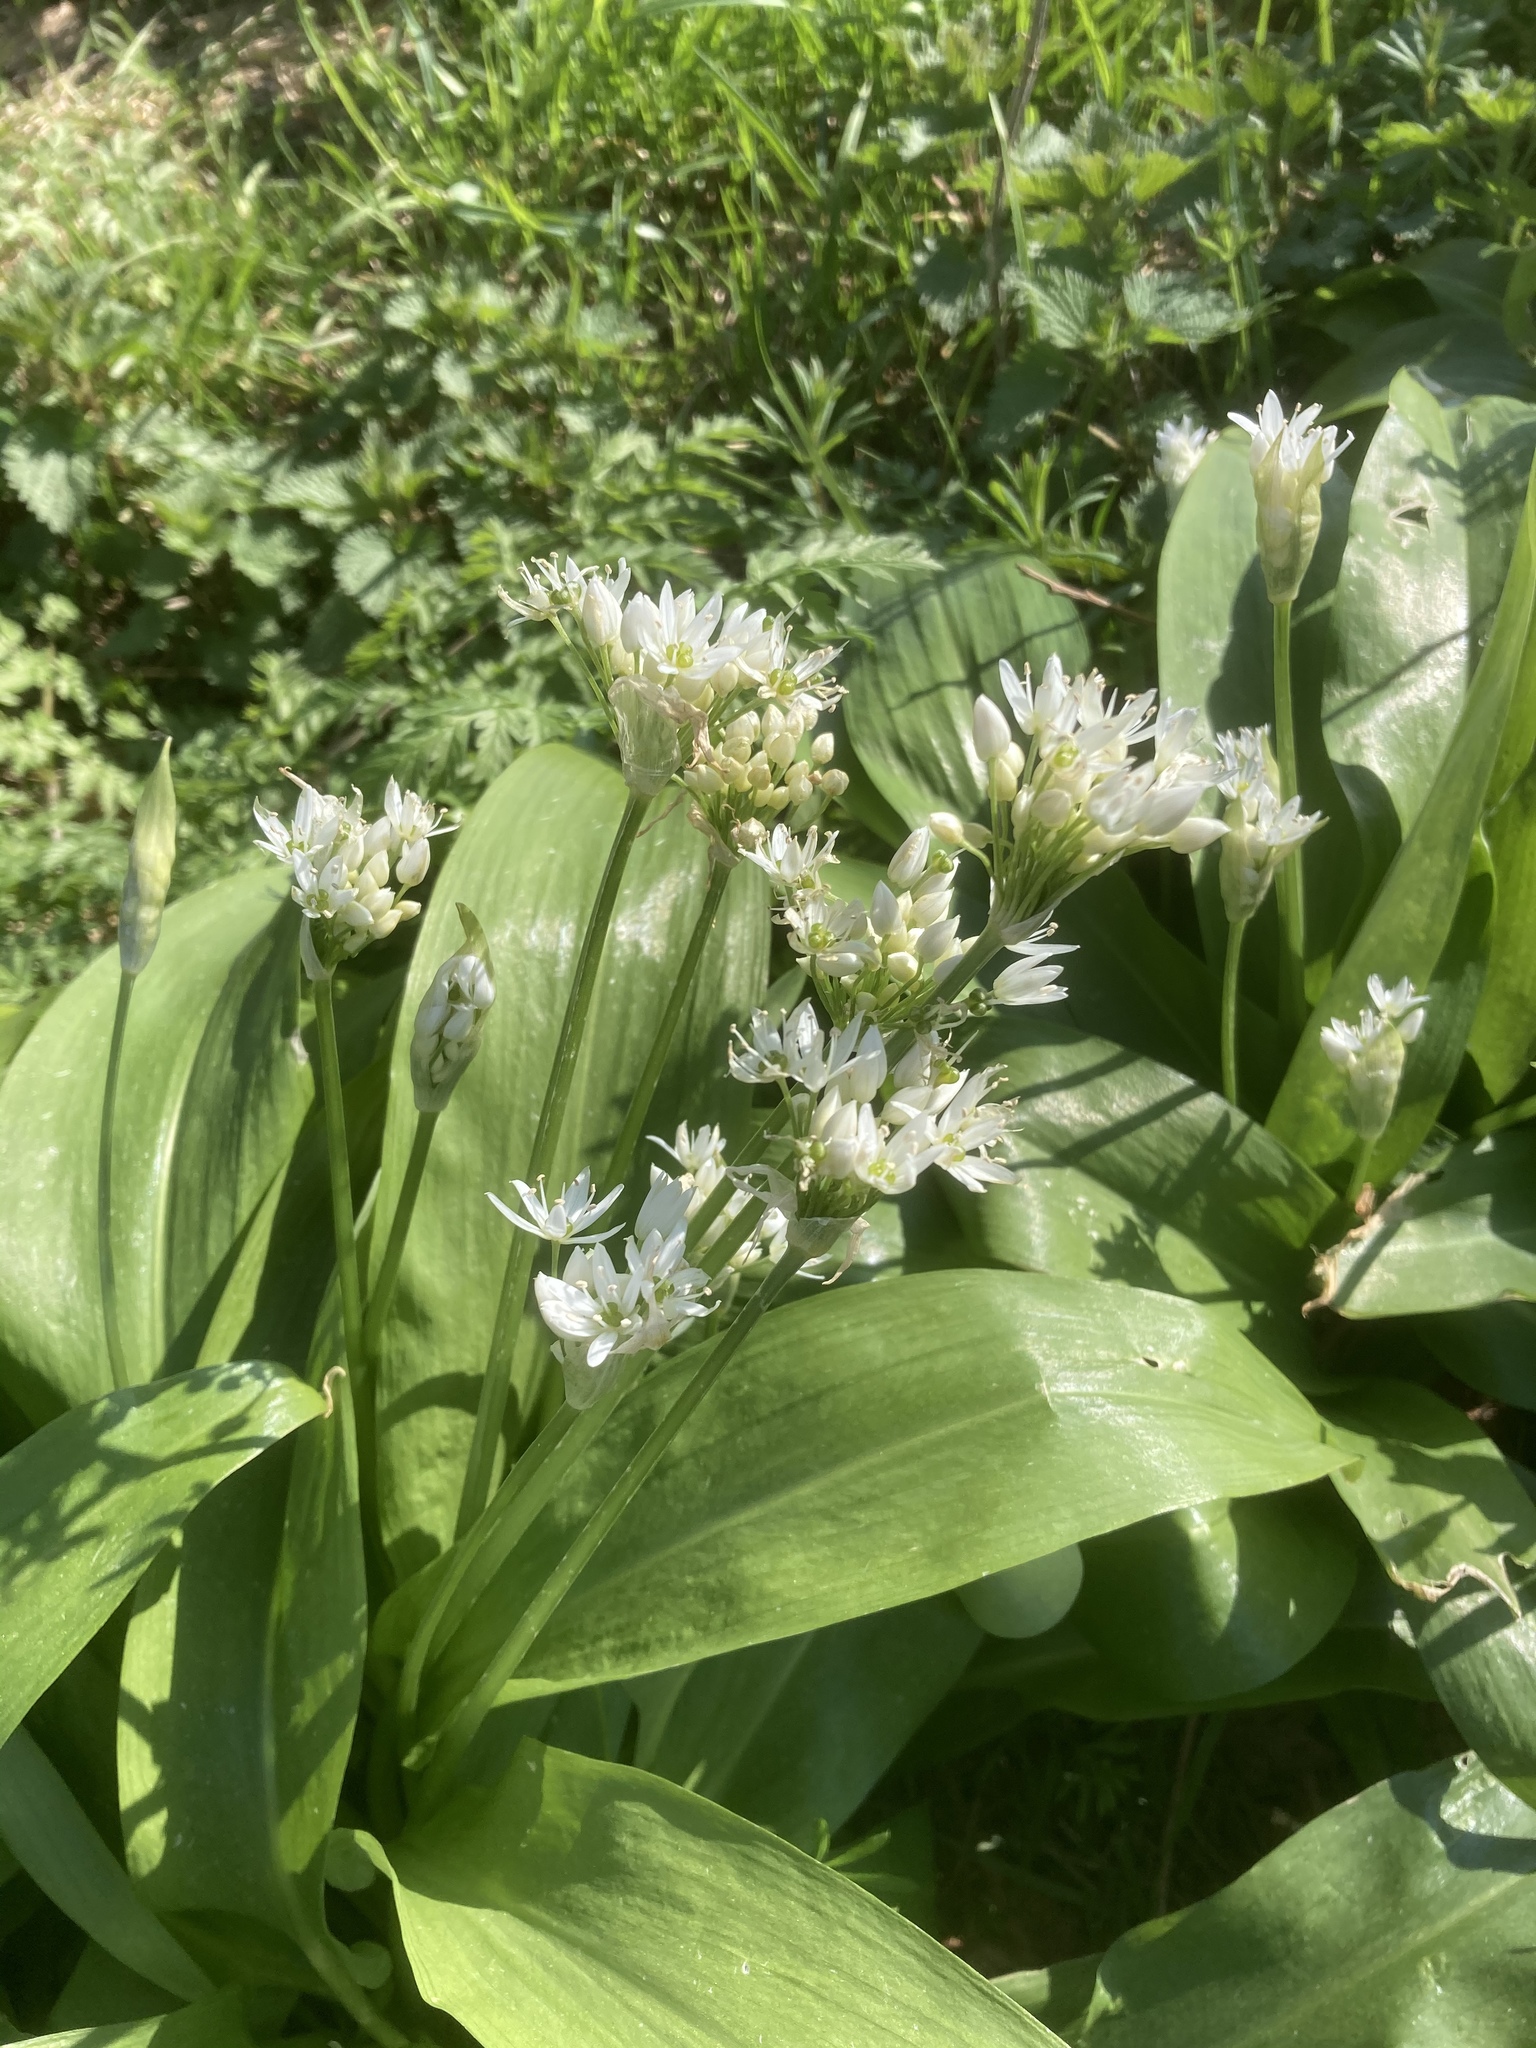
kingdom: Plantae
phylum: Tracheophyta
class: Liliopsida
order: Asparagales
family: Amaryllidaceae
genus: Allium
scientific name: Allium ursinum
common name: Ramsons
